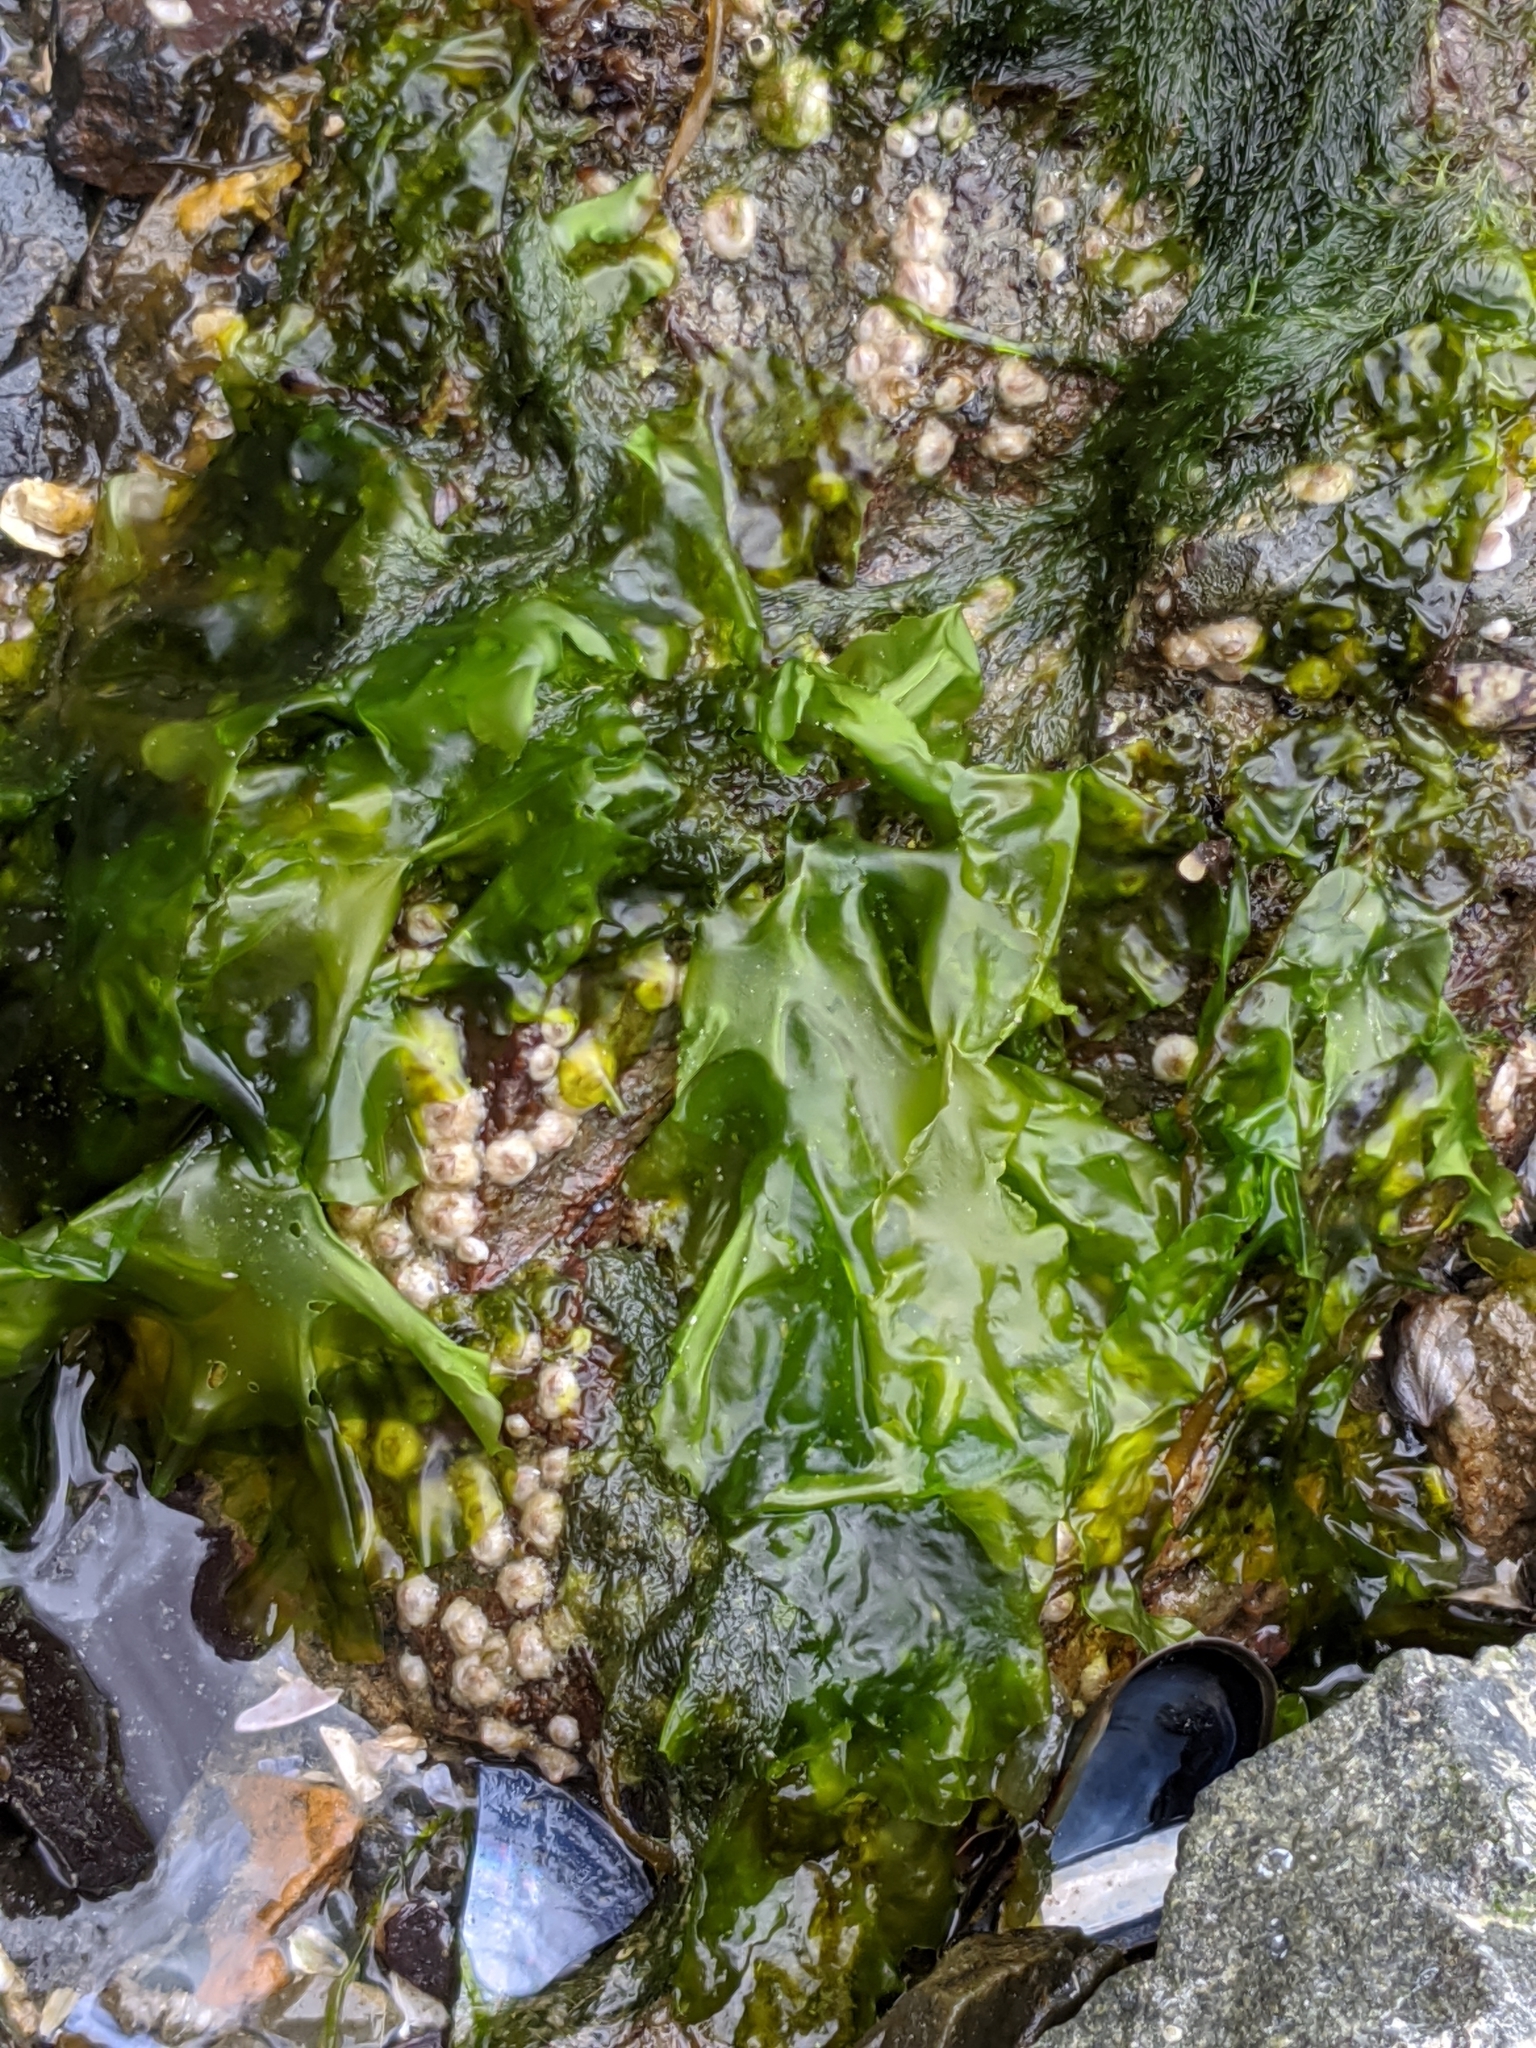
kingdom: Plantae
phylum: Chlorophyta
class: Ulvophyceae
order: Ulvales
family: Ulvaceae
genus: Ulva
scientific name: Ulva lactuca
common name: Sea lettuce
